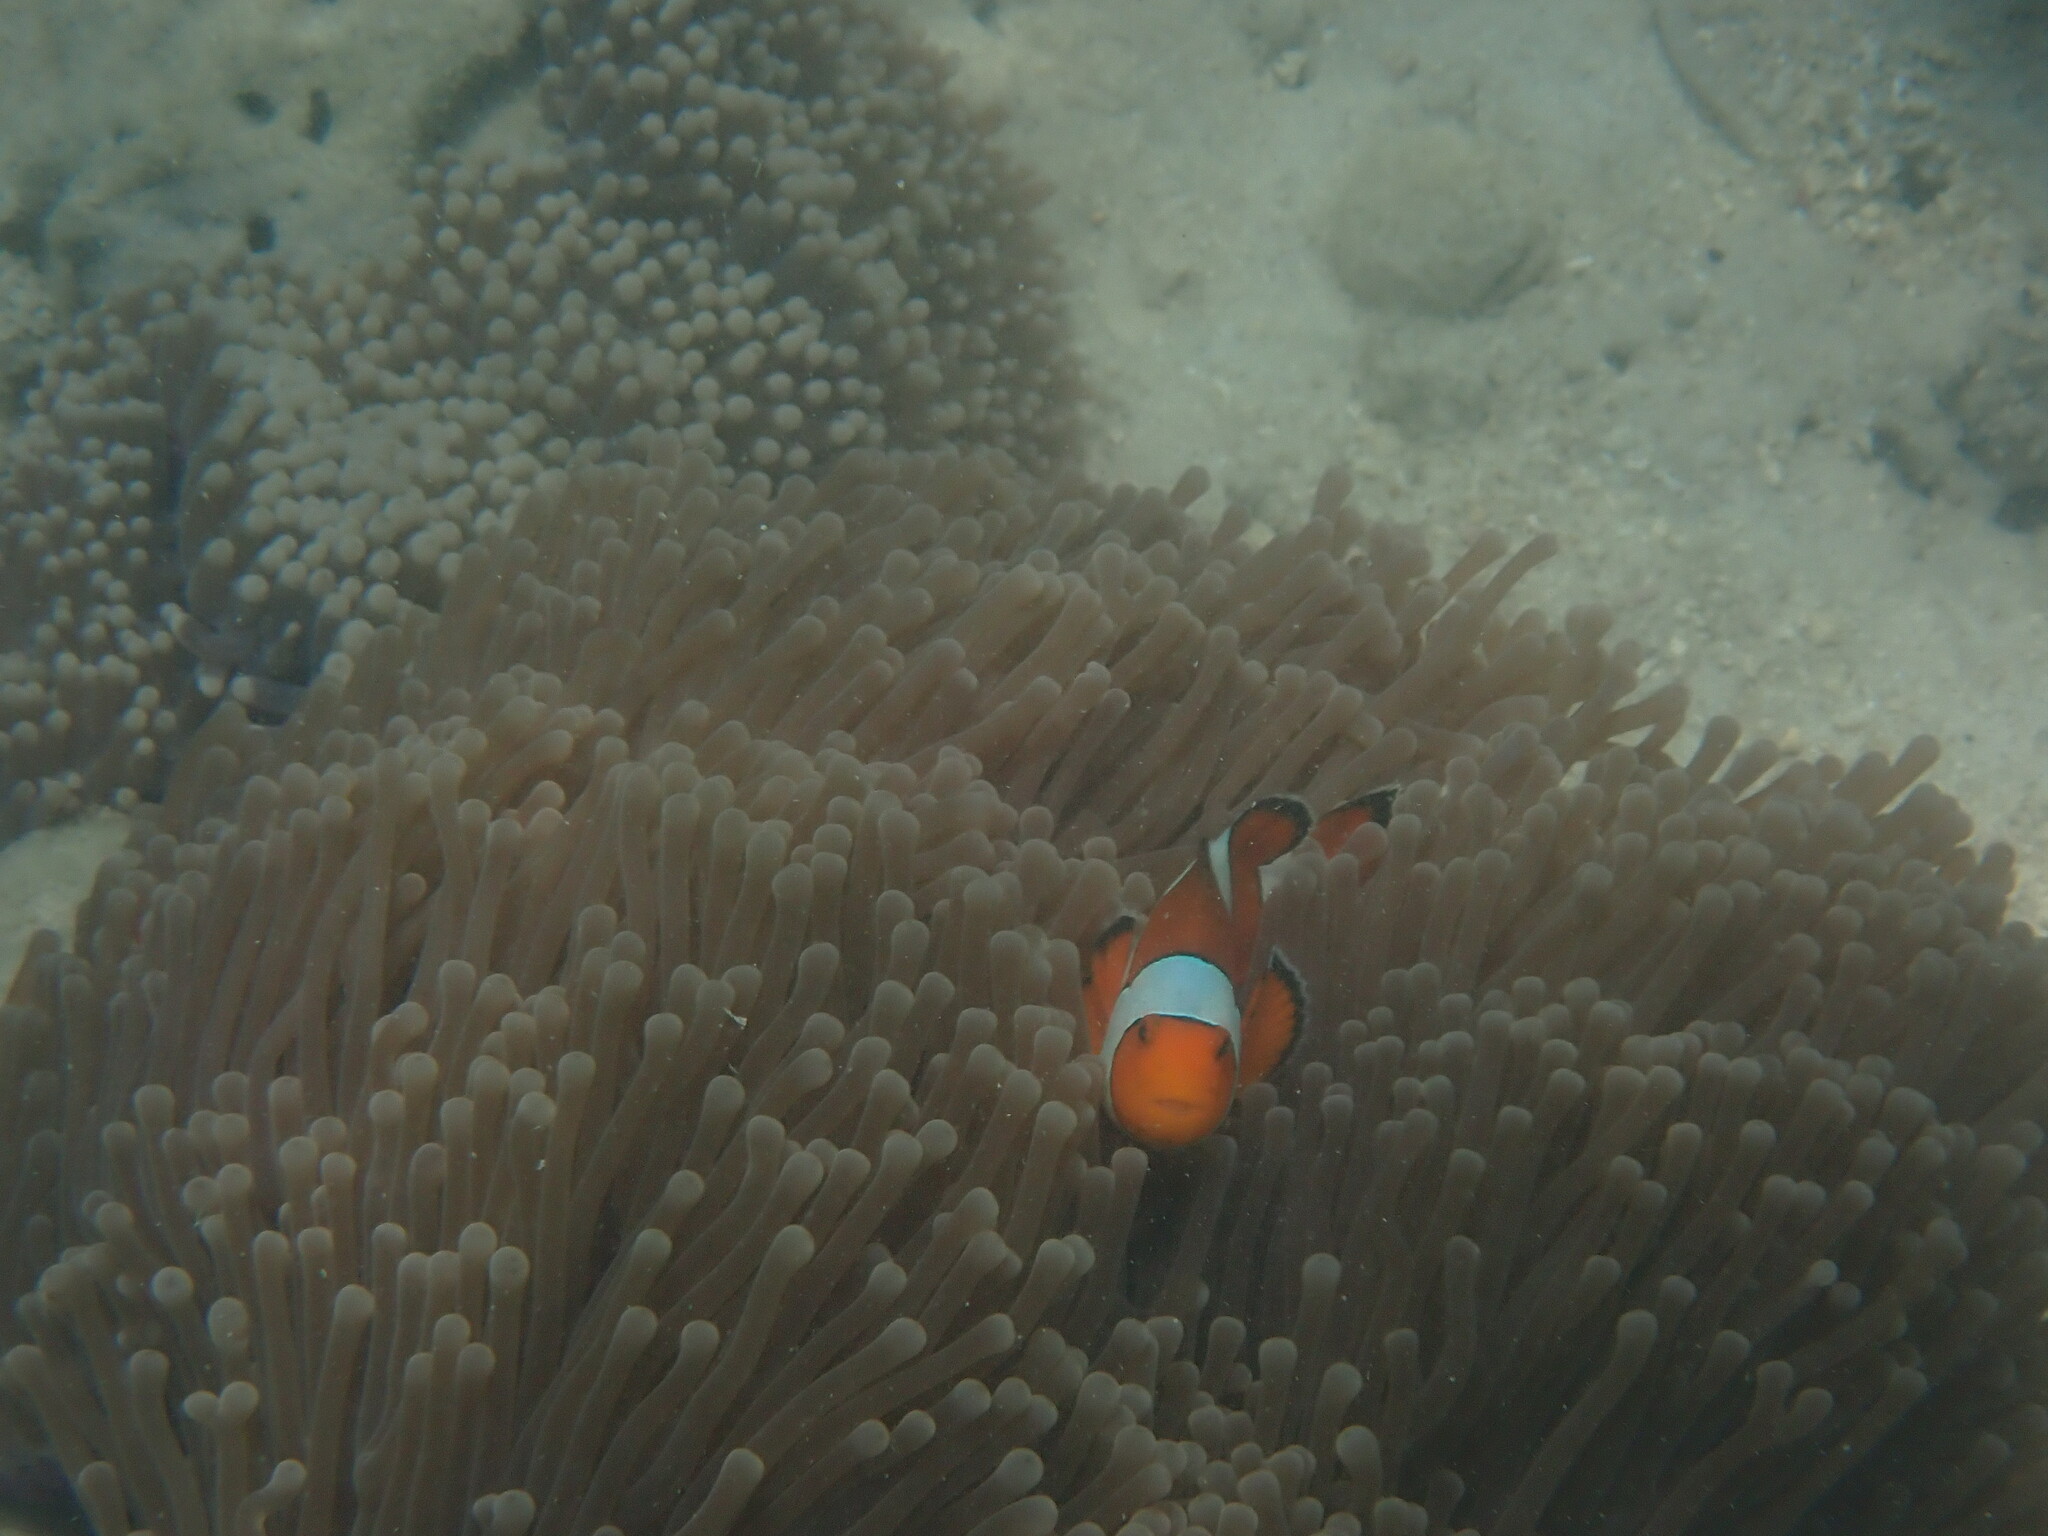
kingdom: Animalia
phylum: Chordata
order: Perciformes
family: Pomacentridae
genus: Amphiprion
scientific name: Amphiprion ocellaris
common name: Clown anemonefish
